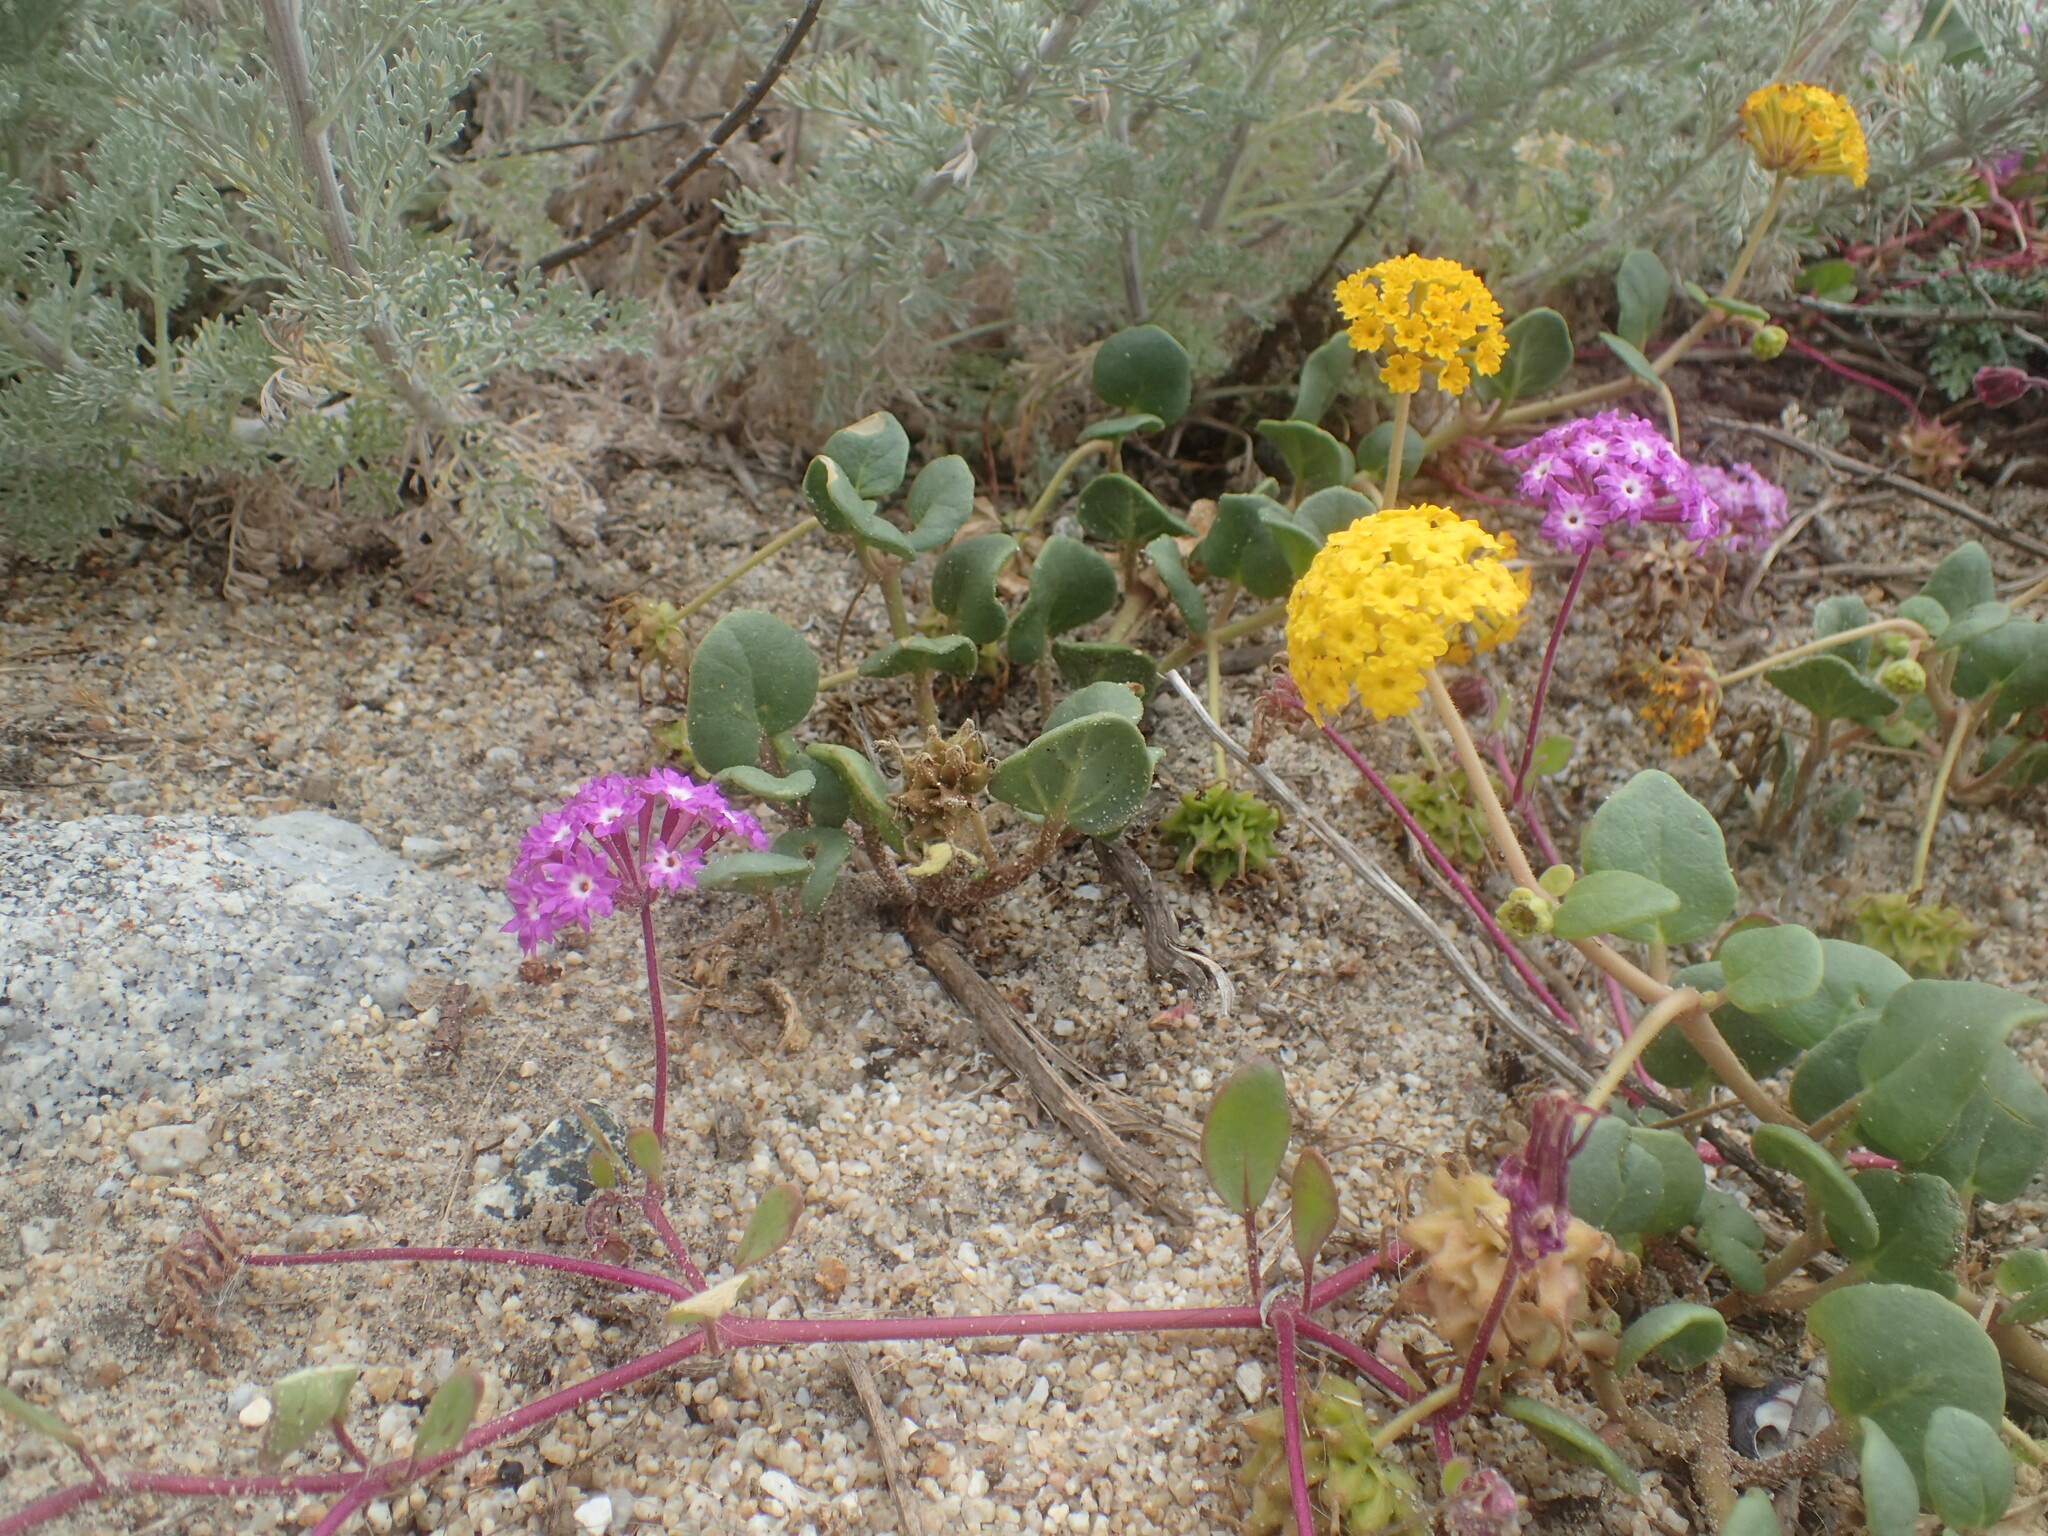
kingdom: Plantae
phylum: Tracheophyta
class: Magnoliopsida
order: Caryophyllales
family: Nyctaginaceae
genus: Abronia
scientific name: Abronia umbellata
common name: Sand-verbena
